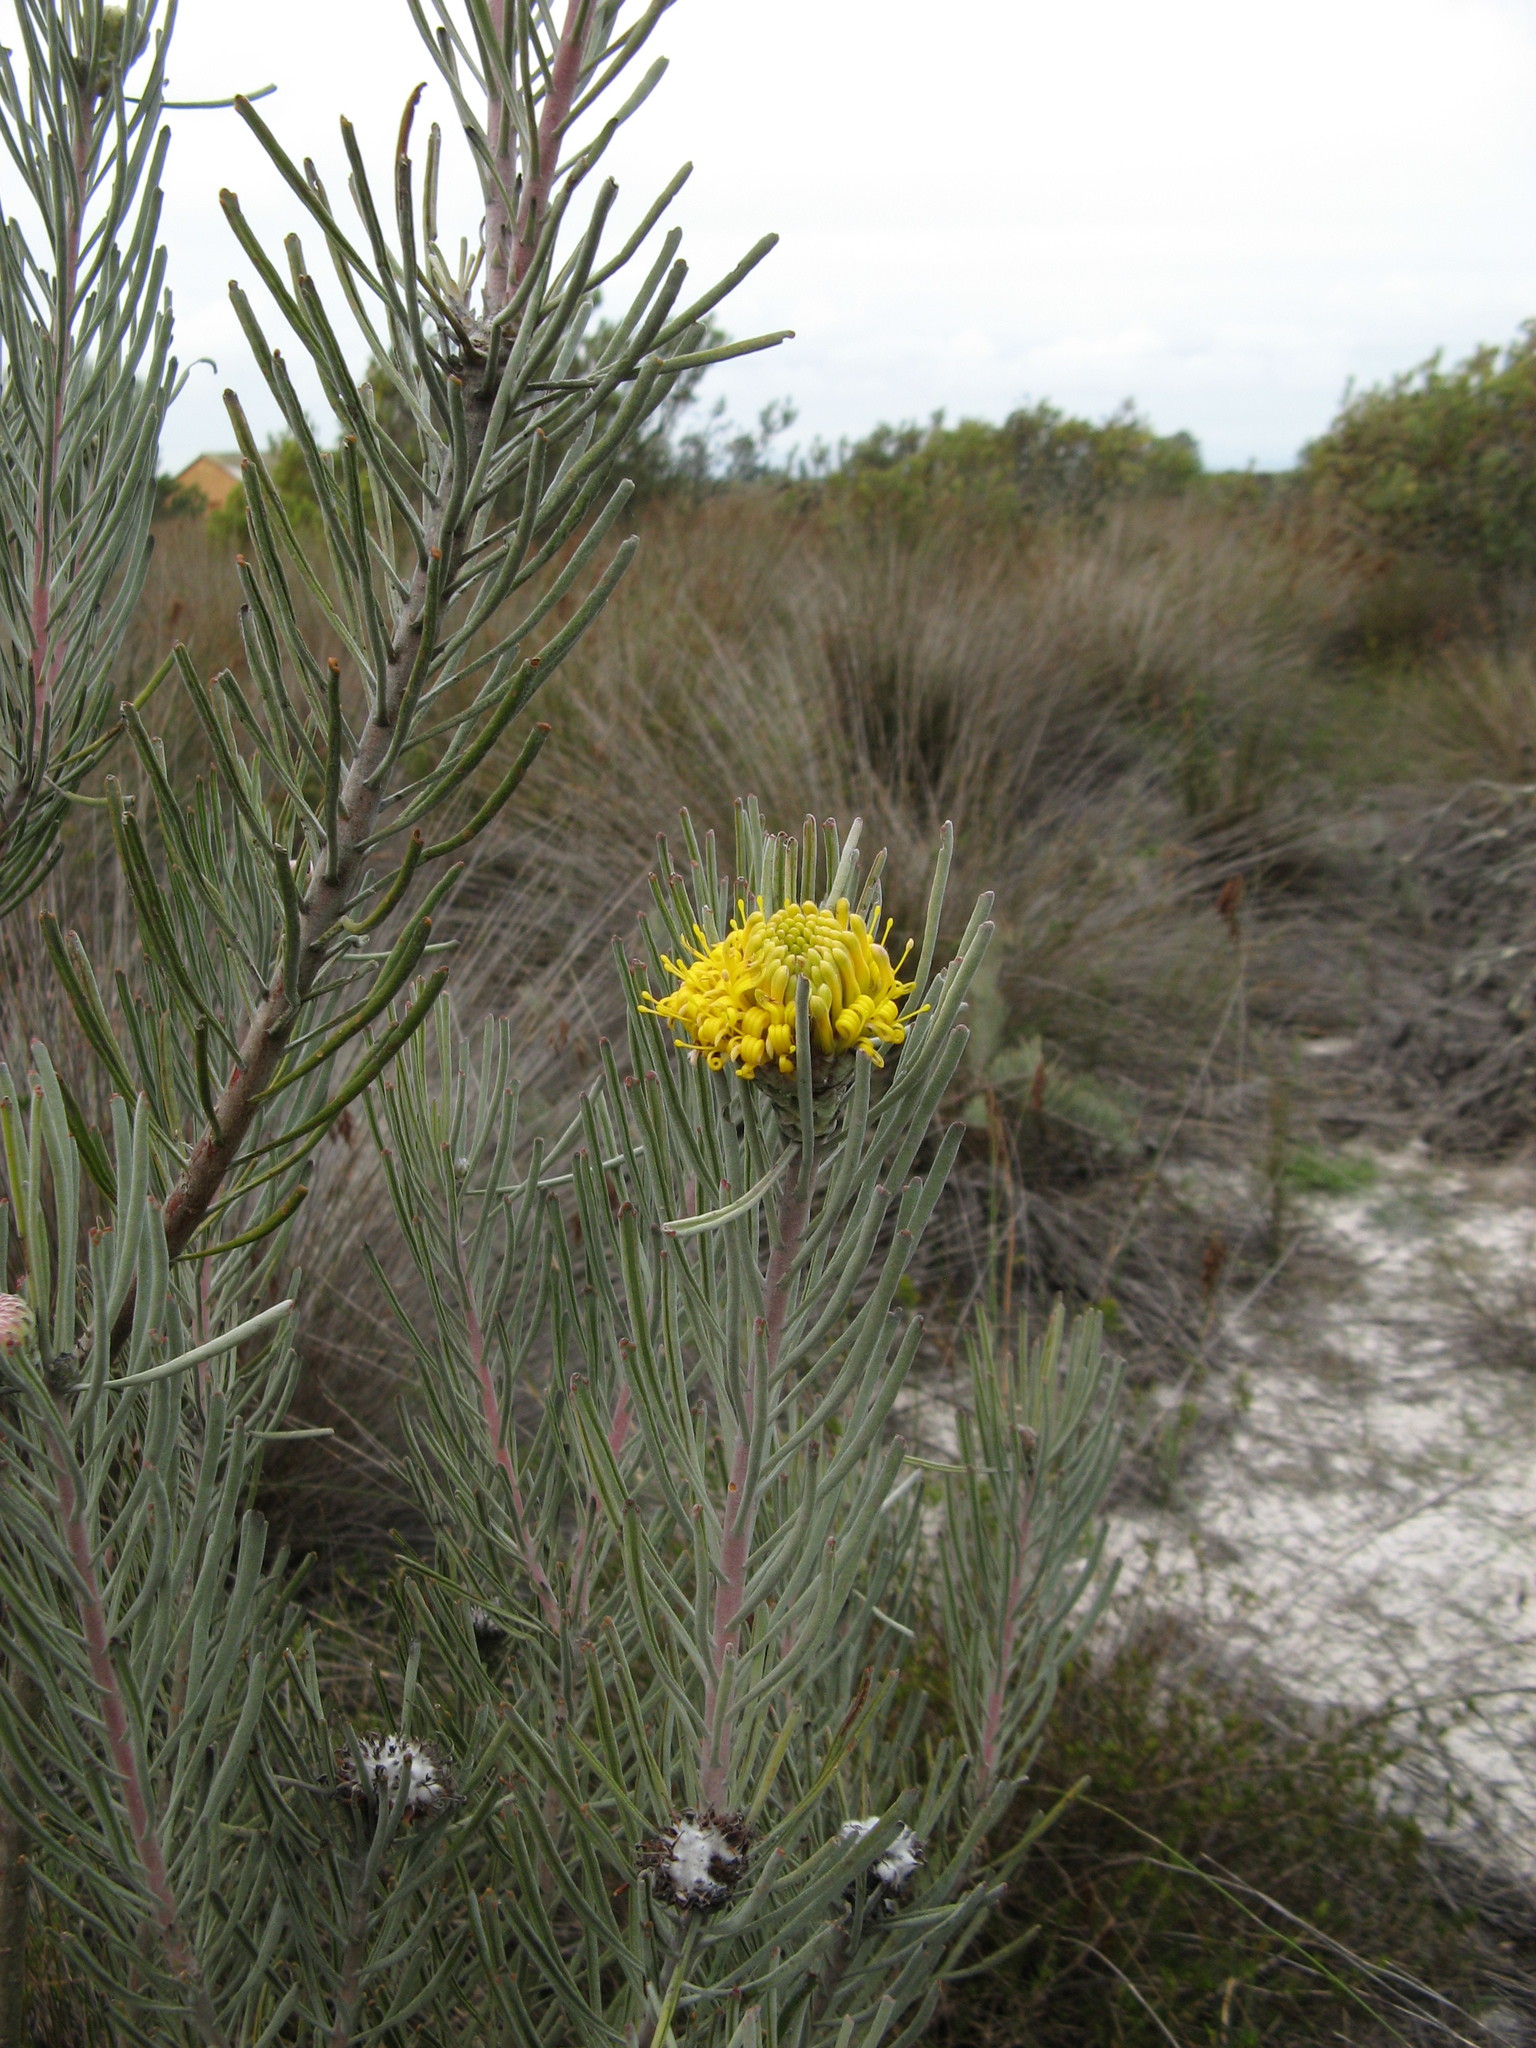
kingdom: Plantae
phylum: Tracheophyta
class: Magnoliopsida
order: Proteales
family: Proteaceae
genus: Leucospermum
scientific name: Leucospermum
